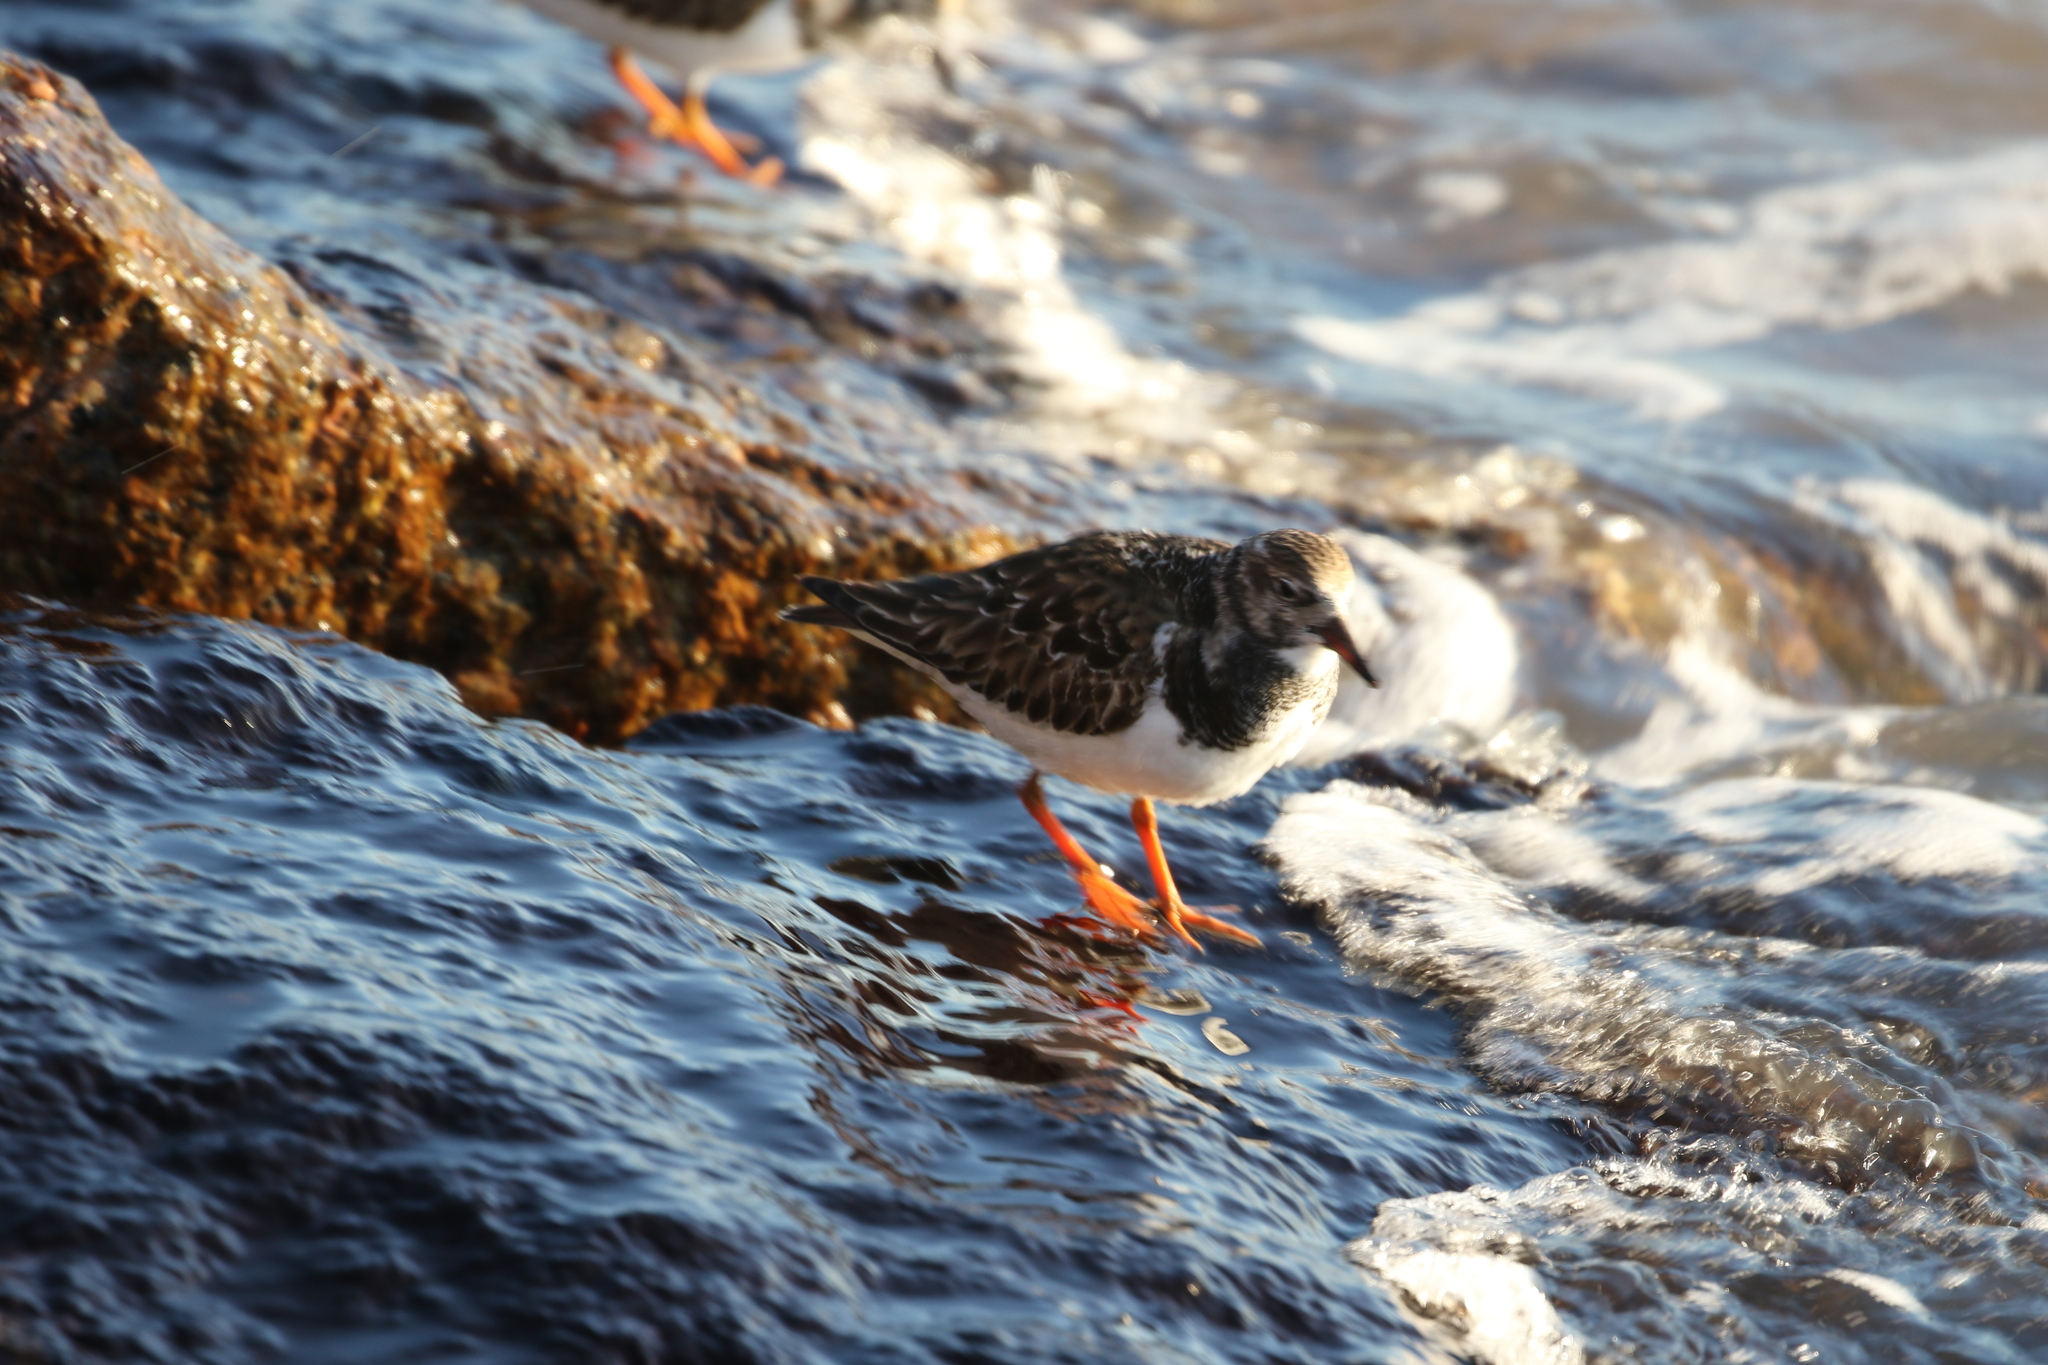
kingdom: Animalia
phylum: Chordata
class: Aves
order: Charadriiformes
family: Scolopacidae
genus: Arenaria
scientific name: Arenaria interpres
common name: Ruddy turnstone
